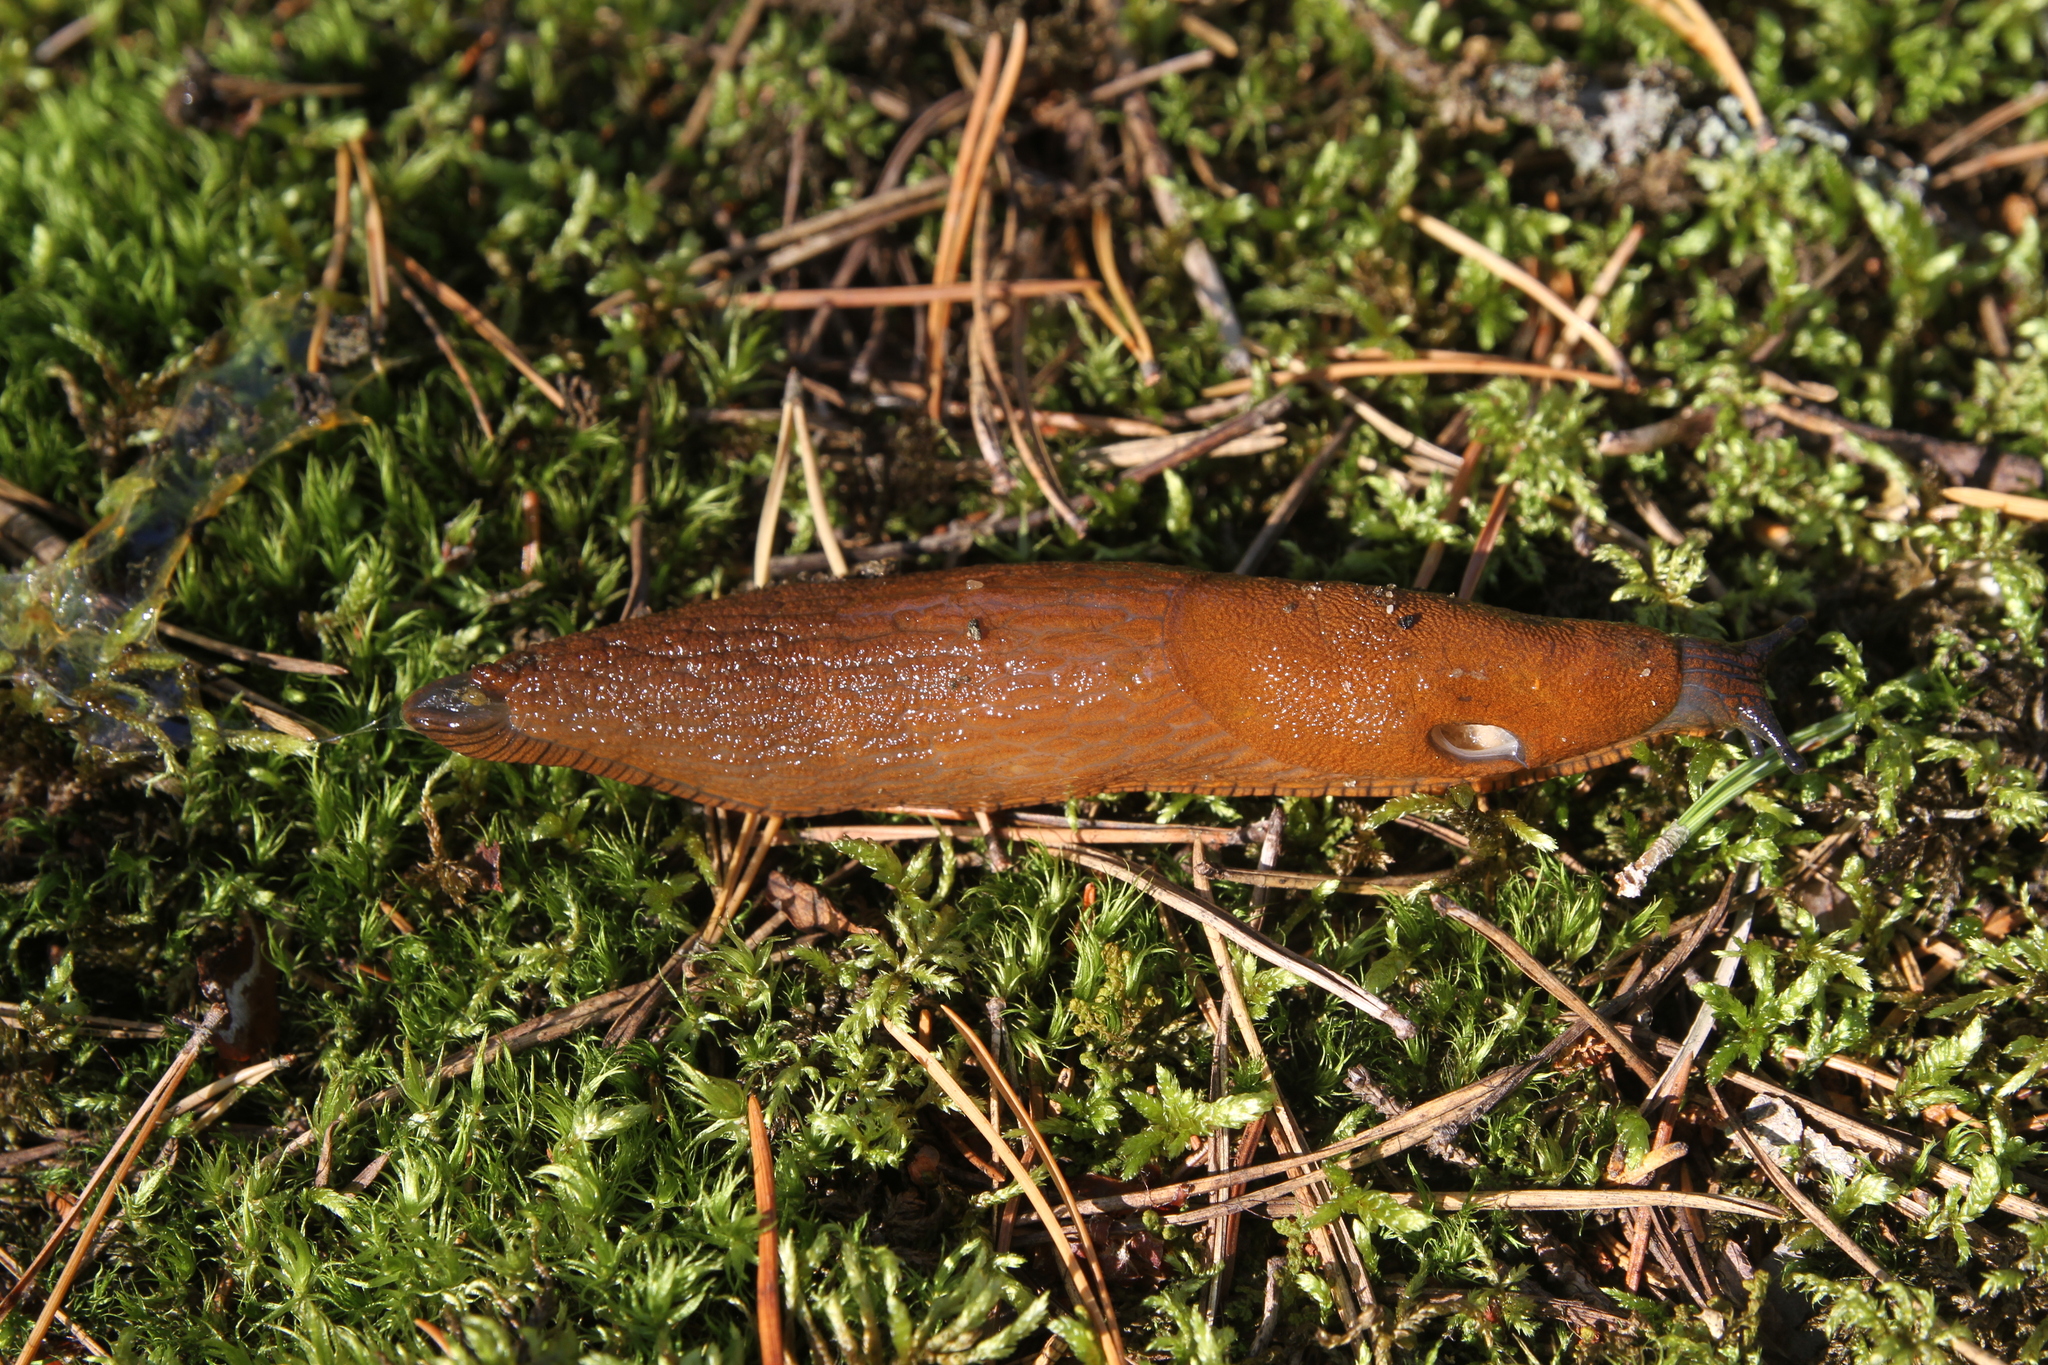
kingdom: Animalia
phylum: Mollusca
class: Gastropoda
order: Stylommatophora
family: Arionidae
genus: Arion
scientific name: Arion vulgaris
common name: Lusitanian slug
